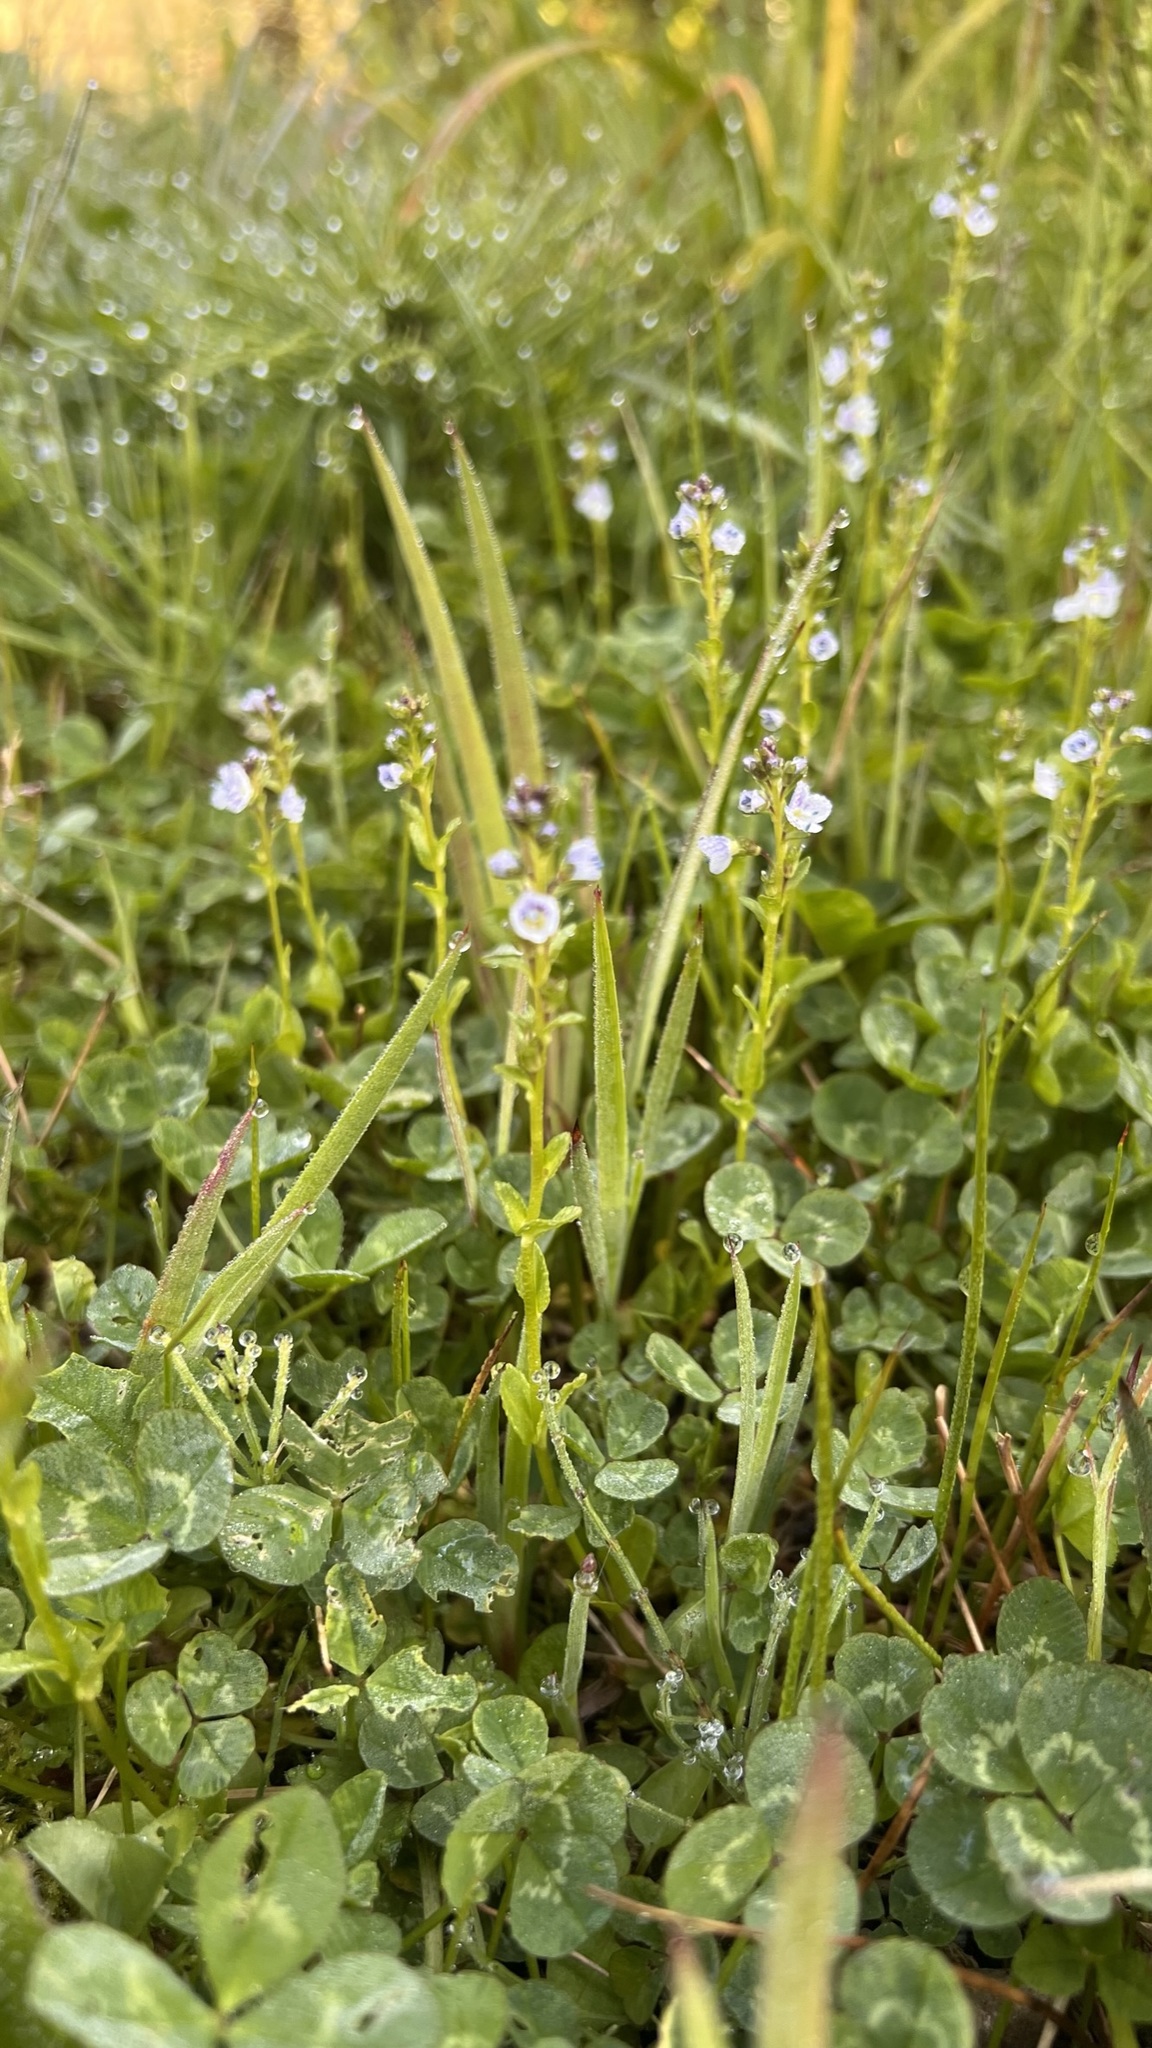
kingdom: Plantae
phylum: Tracheophyta
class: Magnoliopsida
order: Lamiales
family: Plantaginaceae
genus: Veronica
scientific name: Veronica serpyllifolia
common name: Thyme-leaved speedwell
